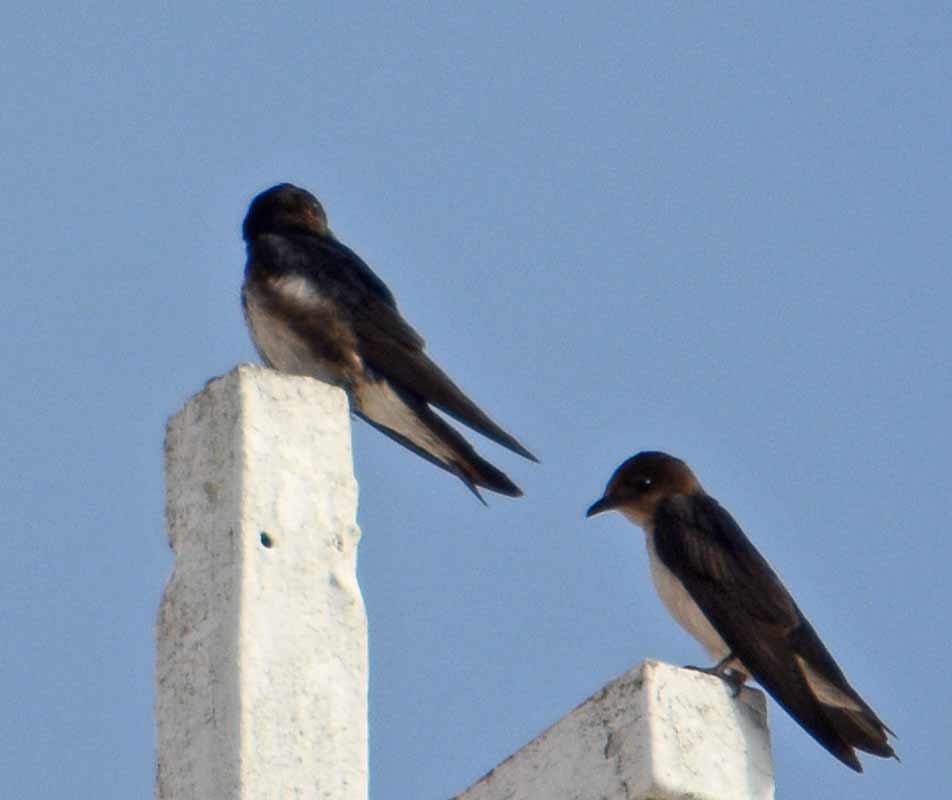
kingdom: Animalia
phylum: Chordata
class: Aves
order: Passeriformes
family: Hirundinidae
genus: Progne
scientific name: Progne chalybea
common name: Grey-breasted martin
